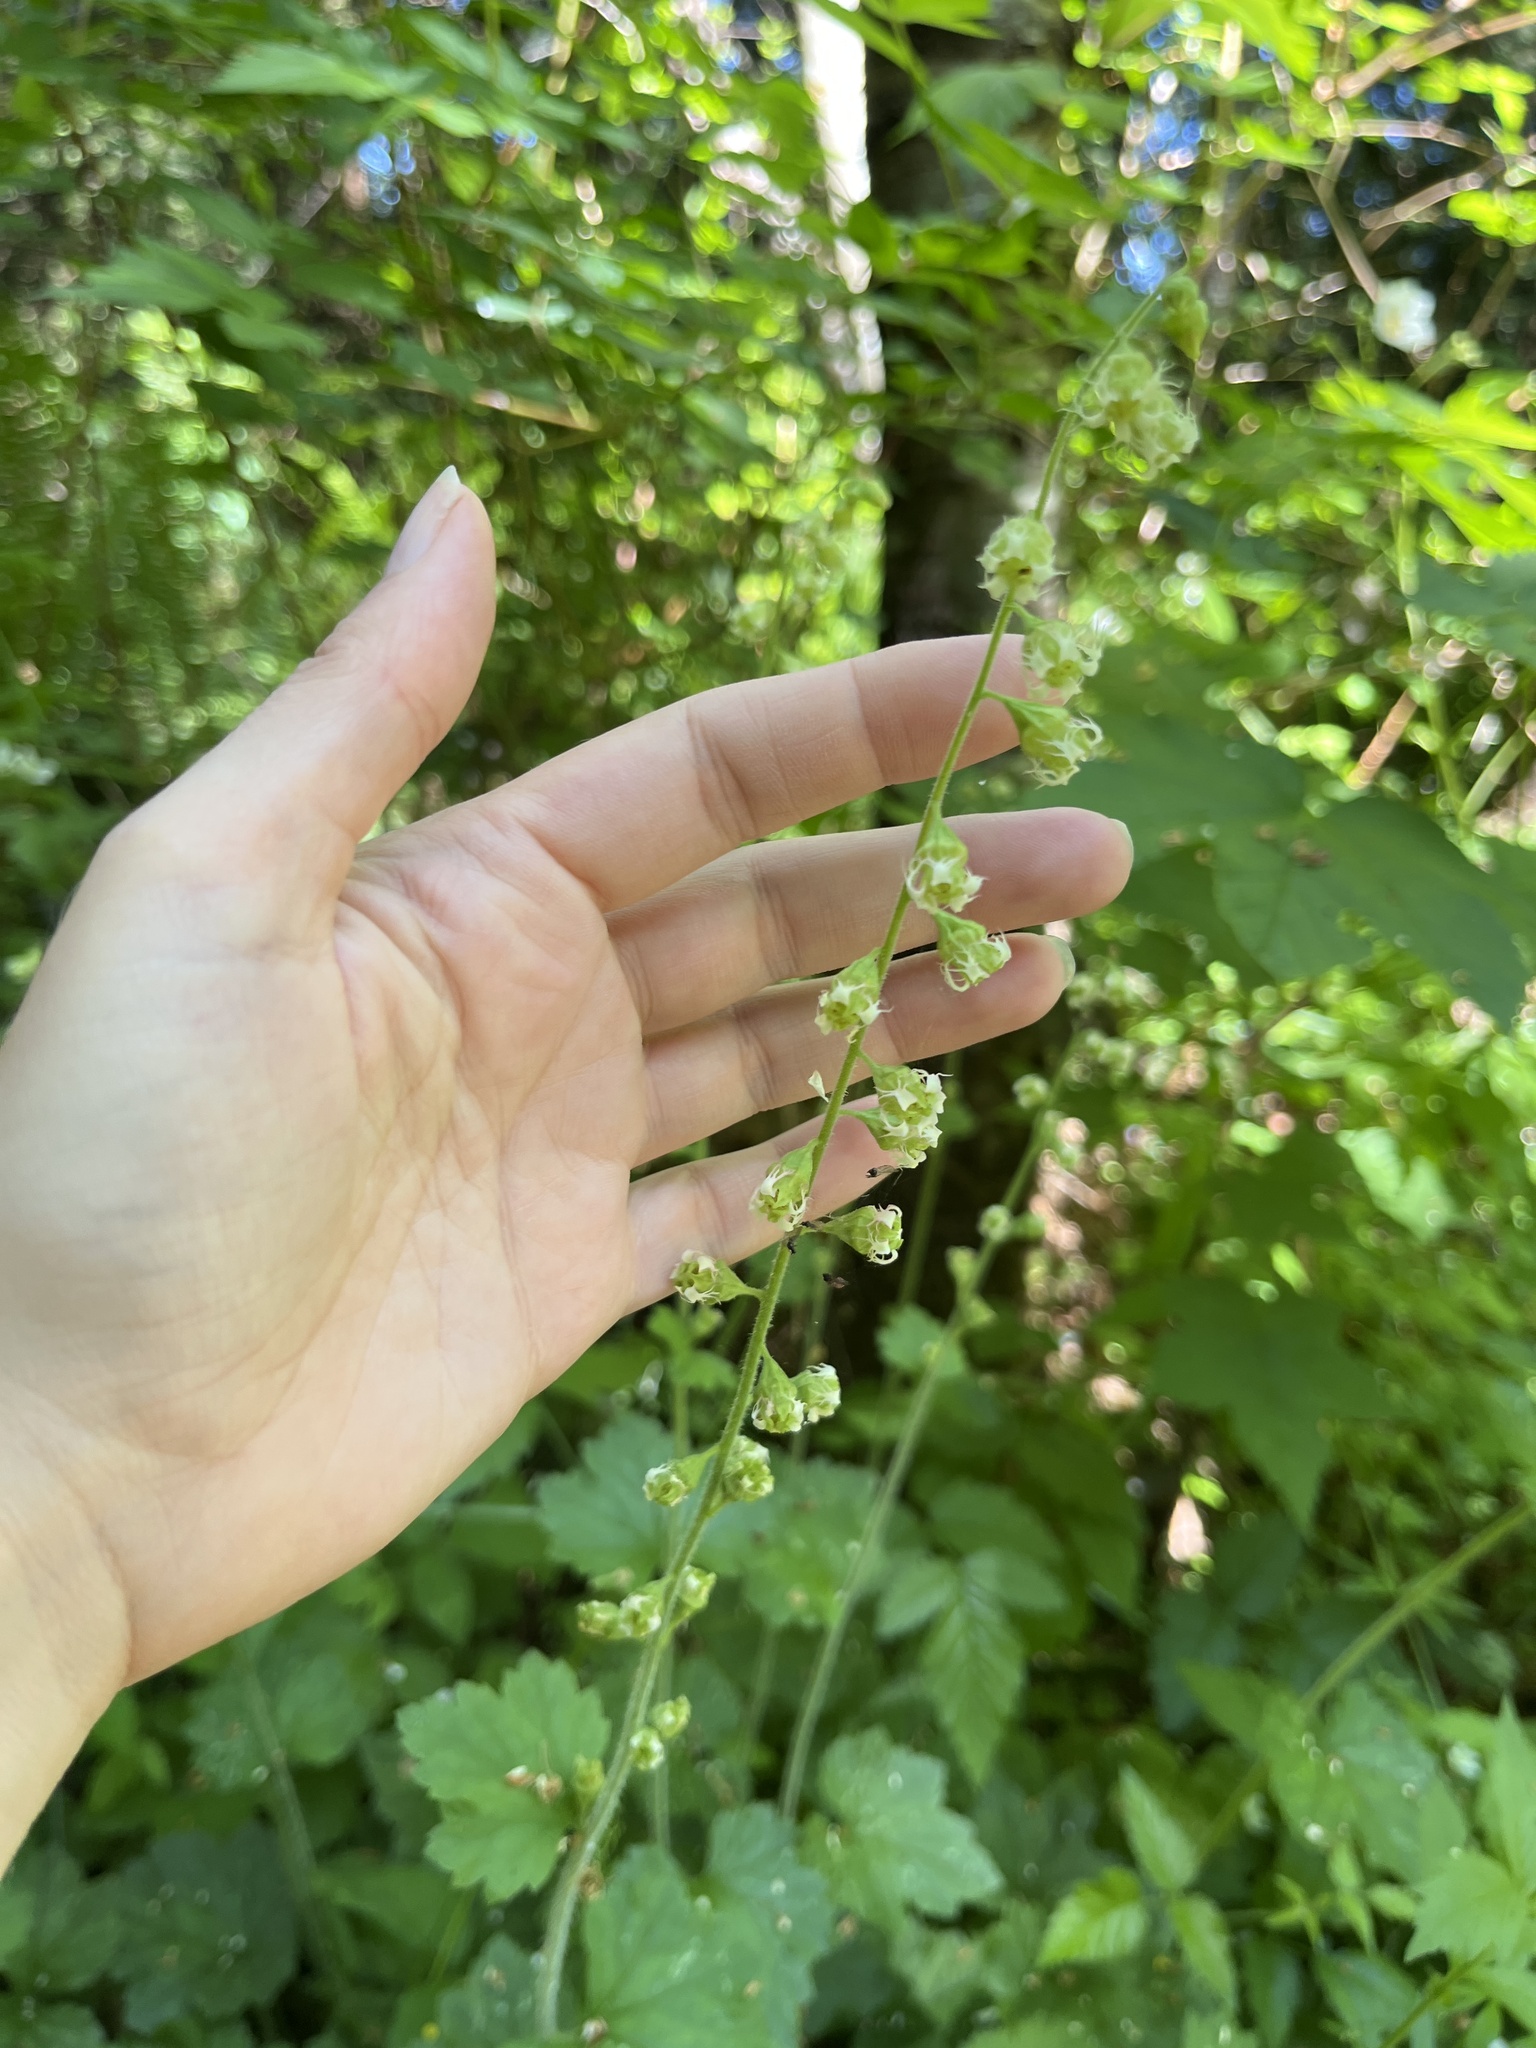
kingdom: Plantae
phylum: Tracheophyta
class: Magnoliopsida
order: Saxifragales
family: Saxifragaceae
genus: Tellima
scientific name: Tellima grandiflora
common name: Fringecups
